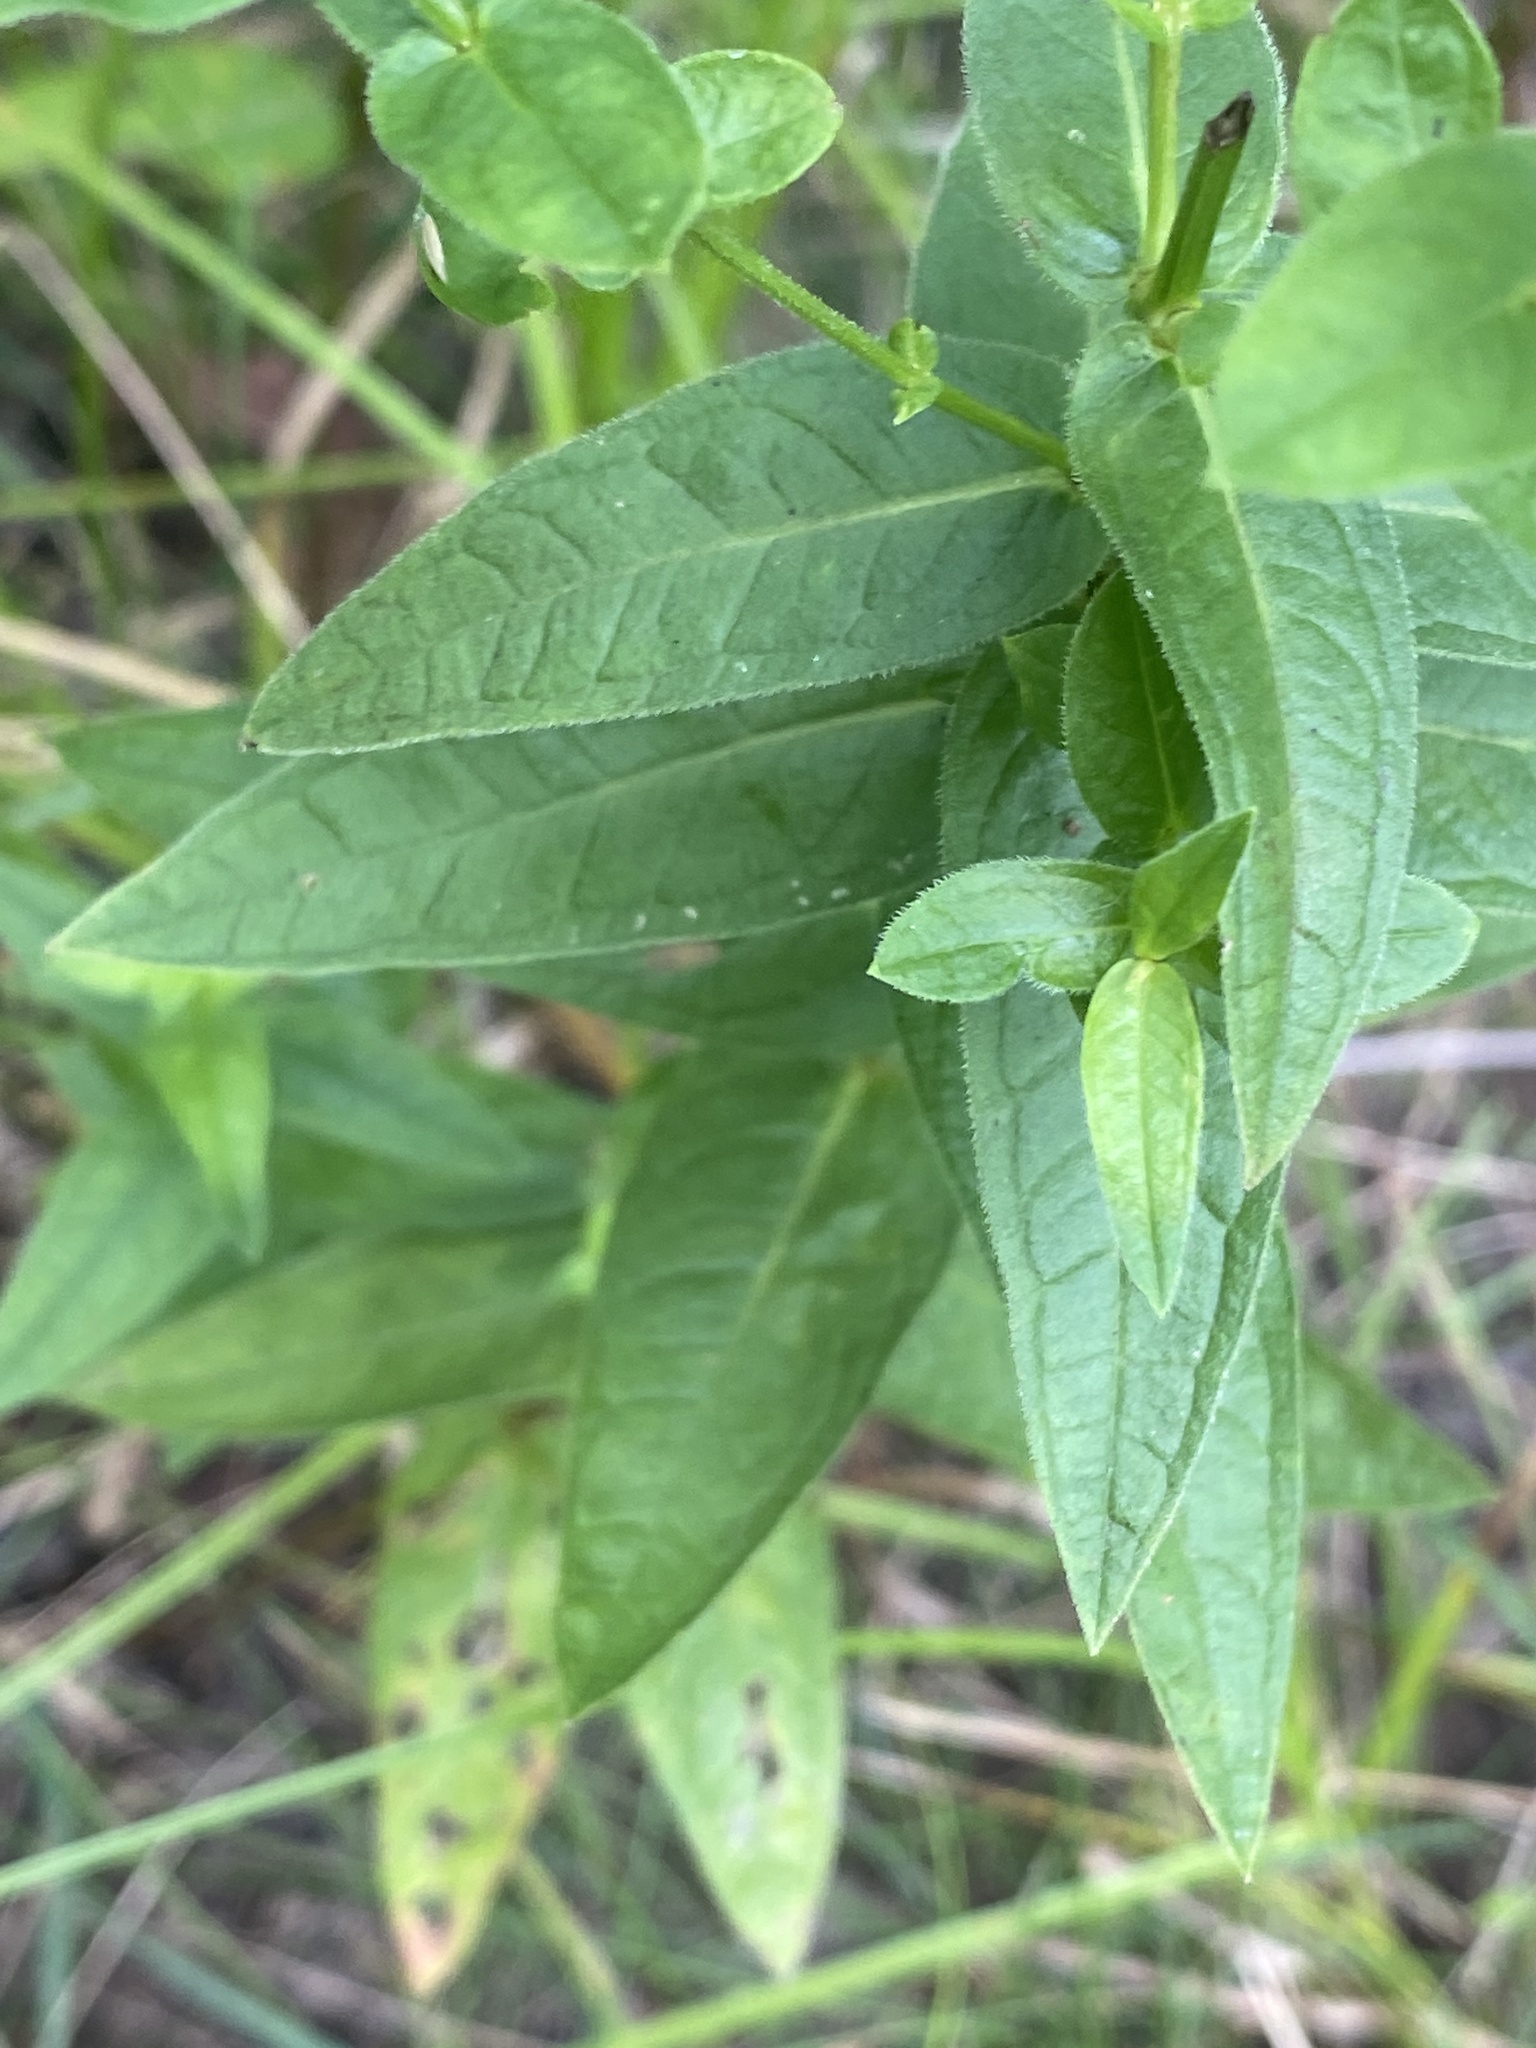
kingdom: Plantae
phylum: Tracheophyta
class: Magnoliopsida
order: Myrtales
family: Lythraceae
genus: Lythrum
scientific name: Lythrum salicaria
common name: Purple loosestrife
